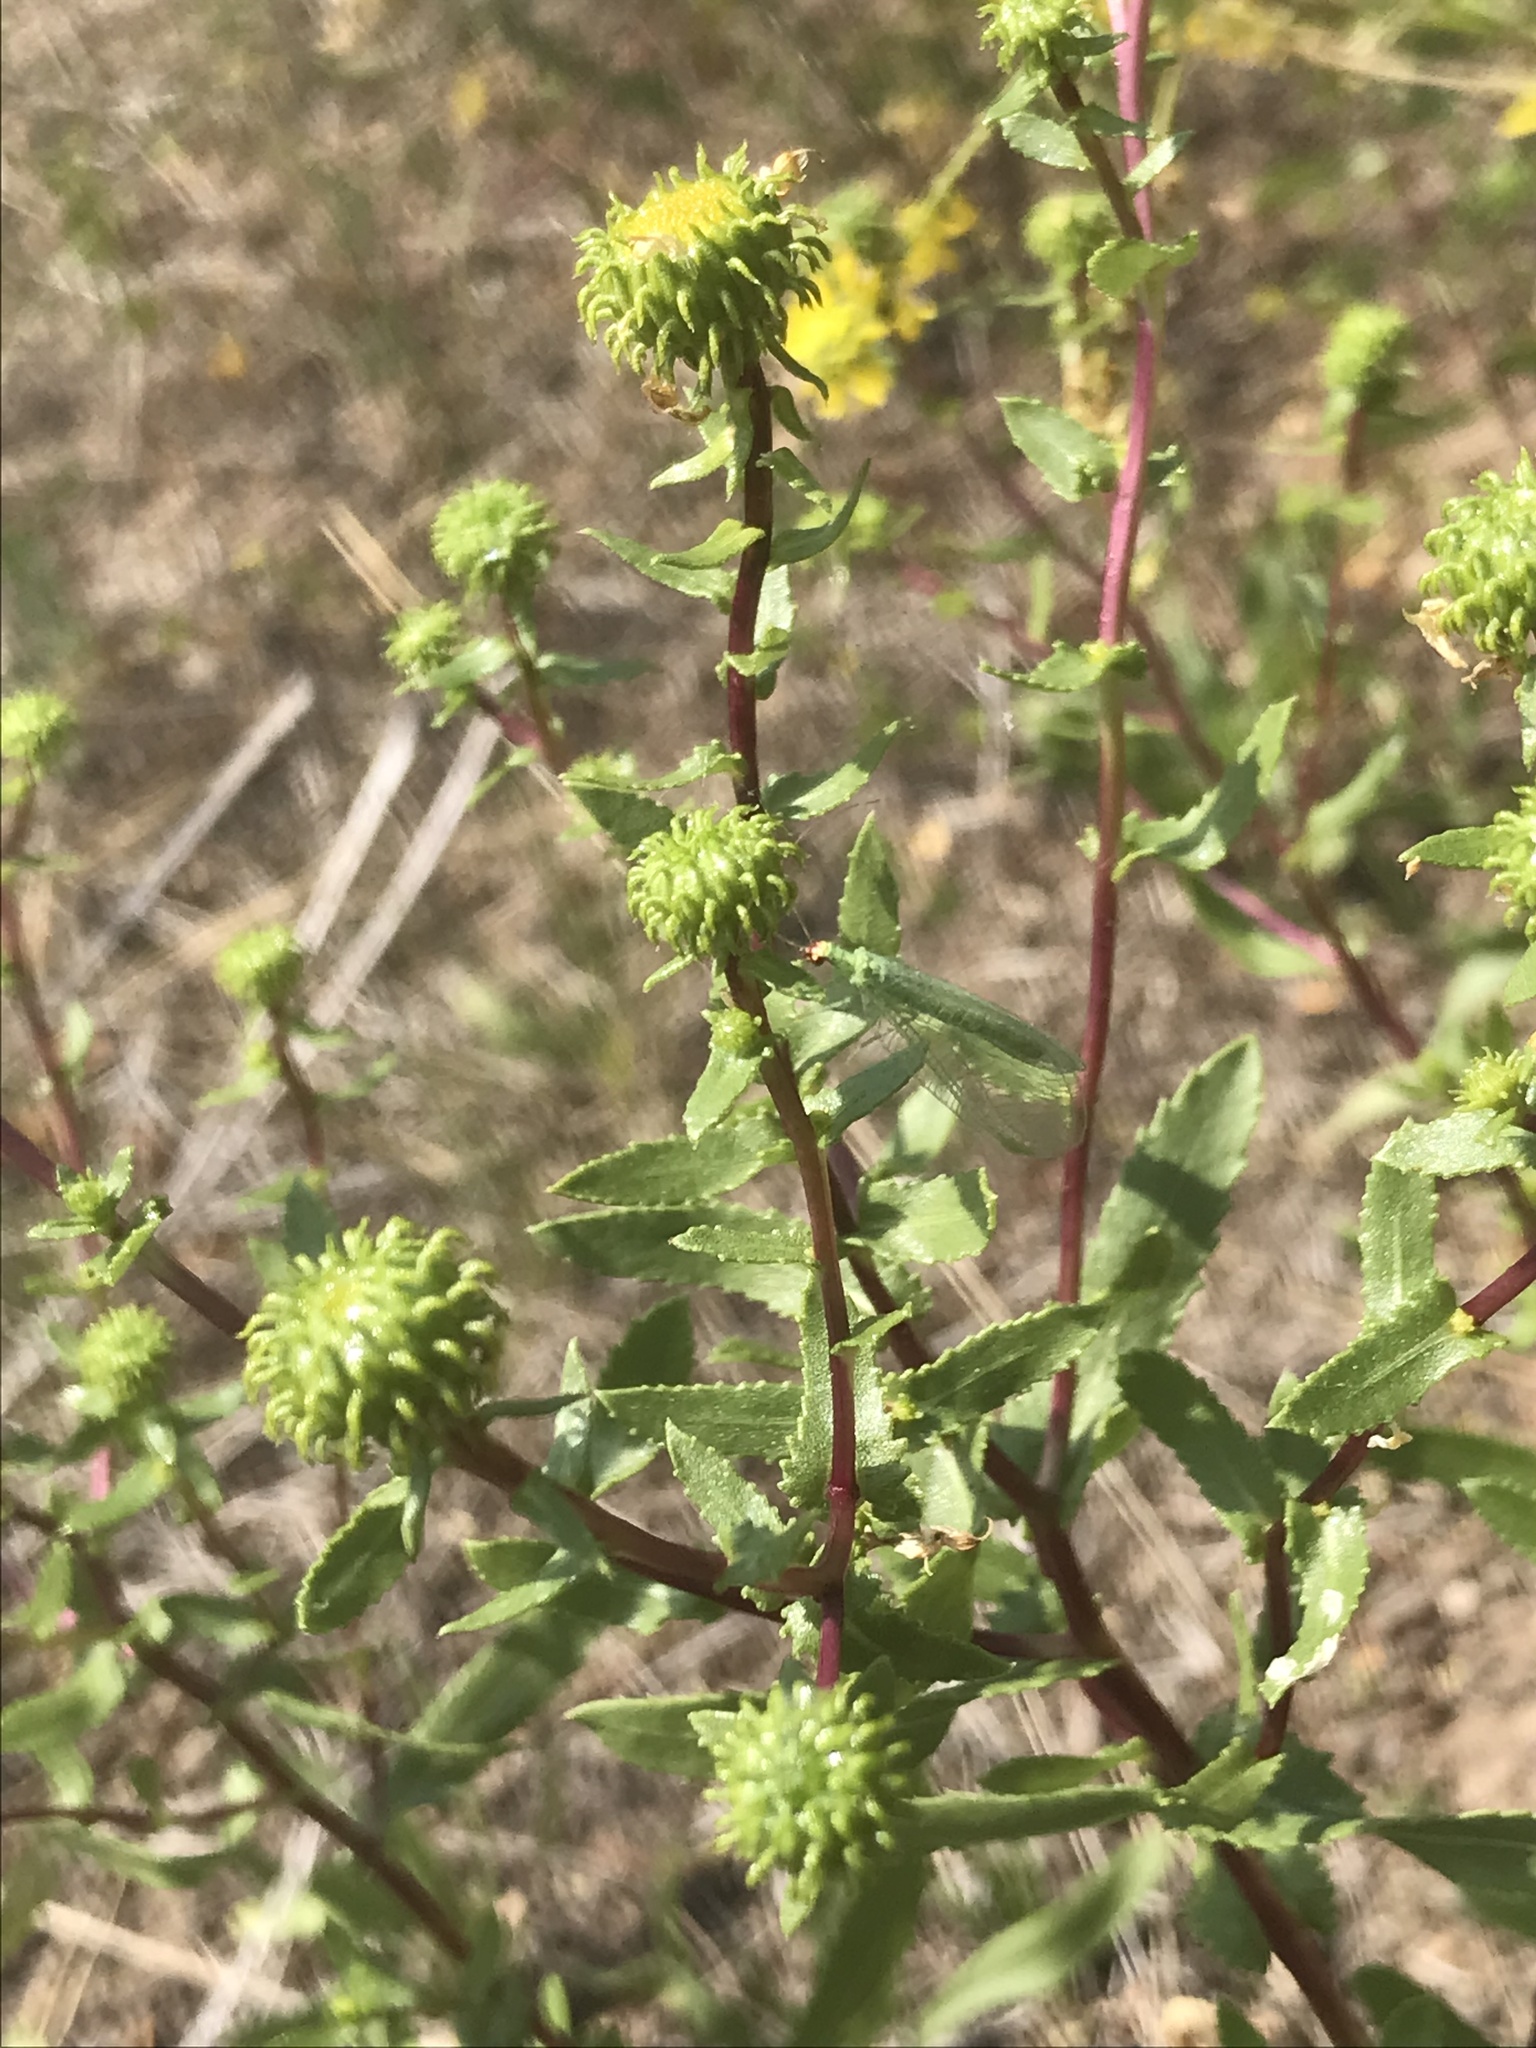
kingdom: Plantae
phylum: Tracheophyta
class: Magnoliopsida
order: Asterales
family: Asteraceae
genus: Grindelia
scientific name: Grindelia squarrosa
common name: Curly-cup gumweed
